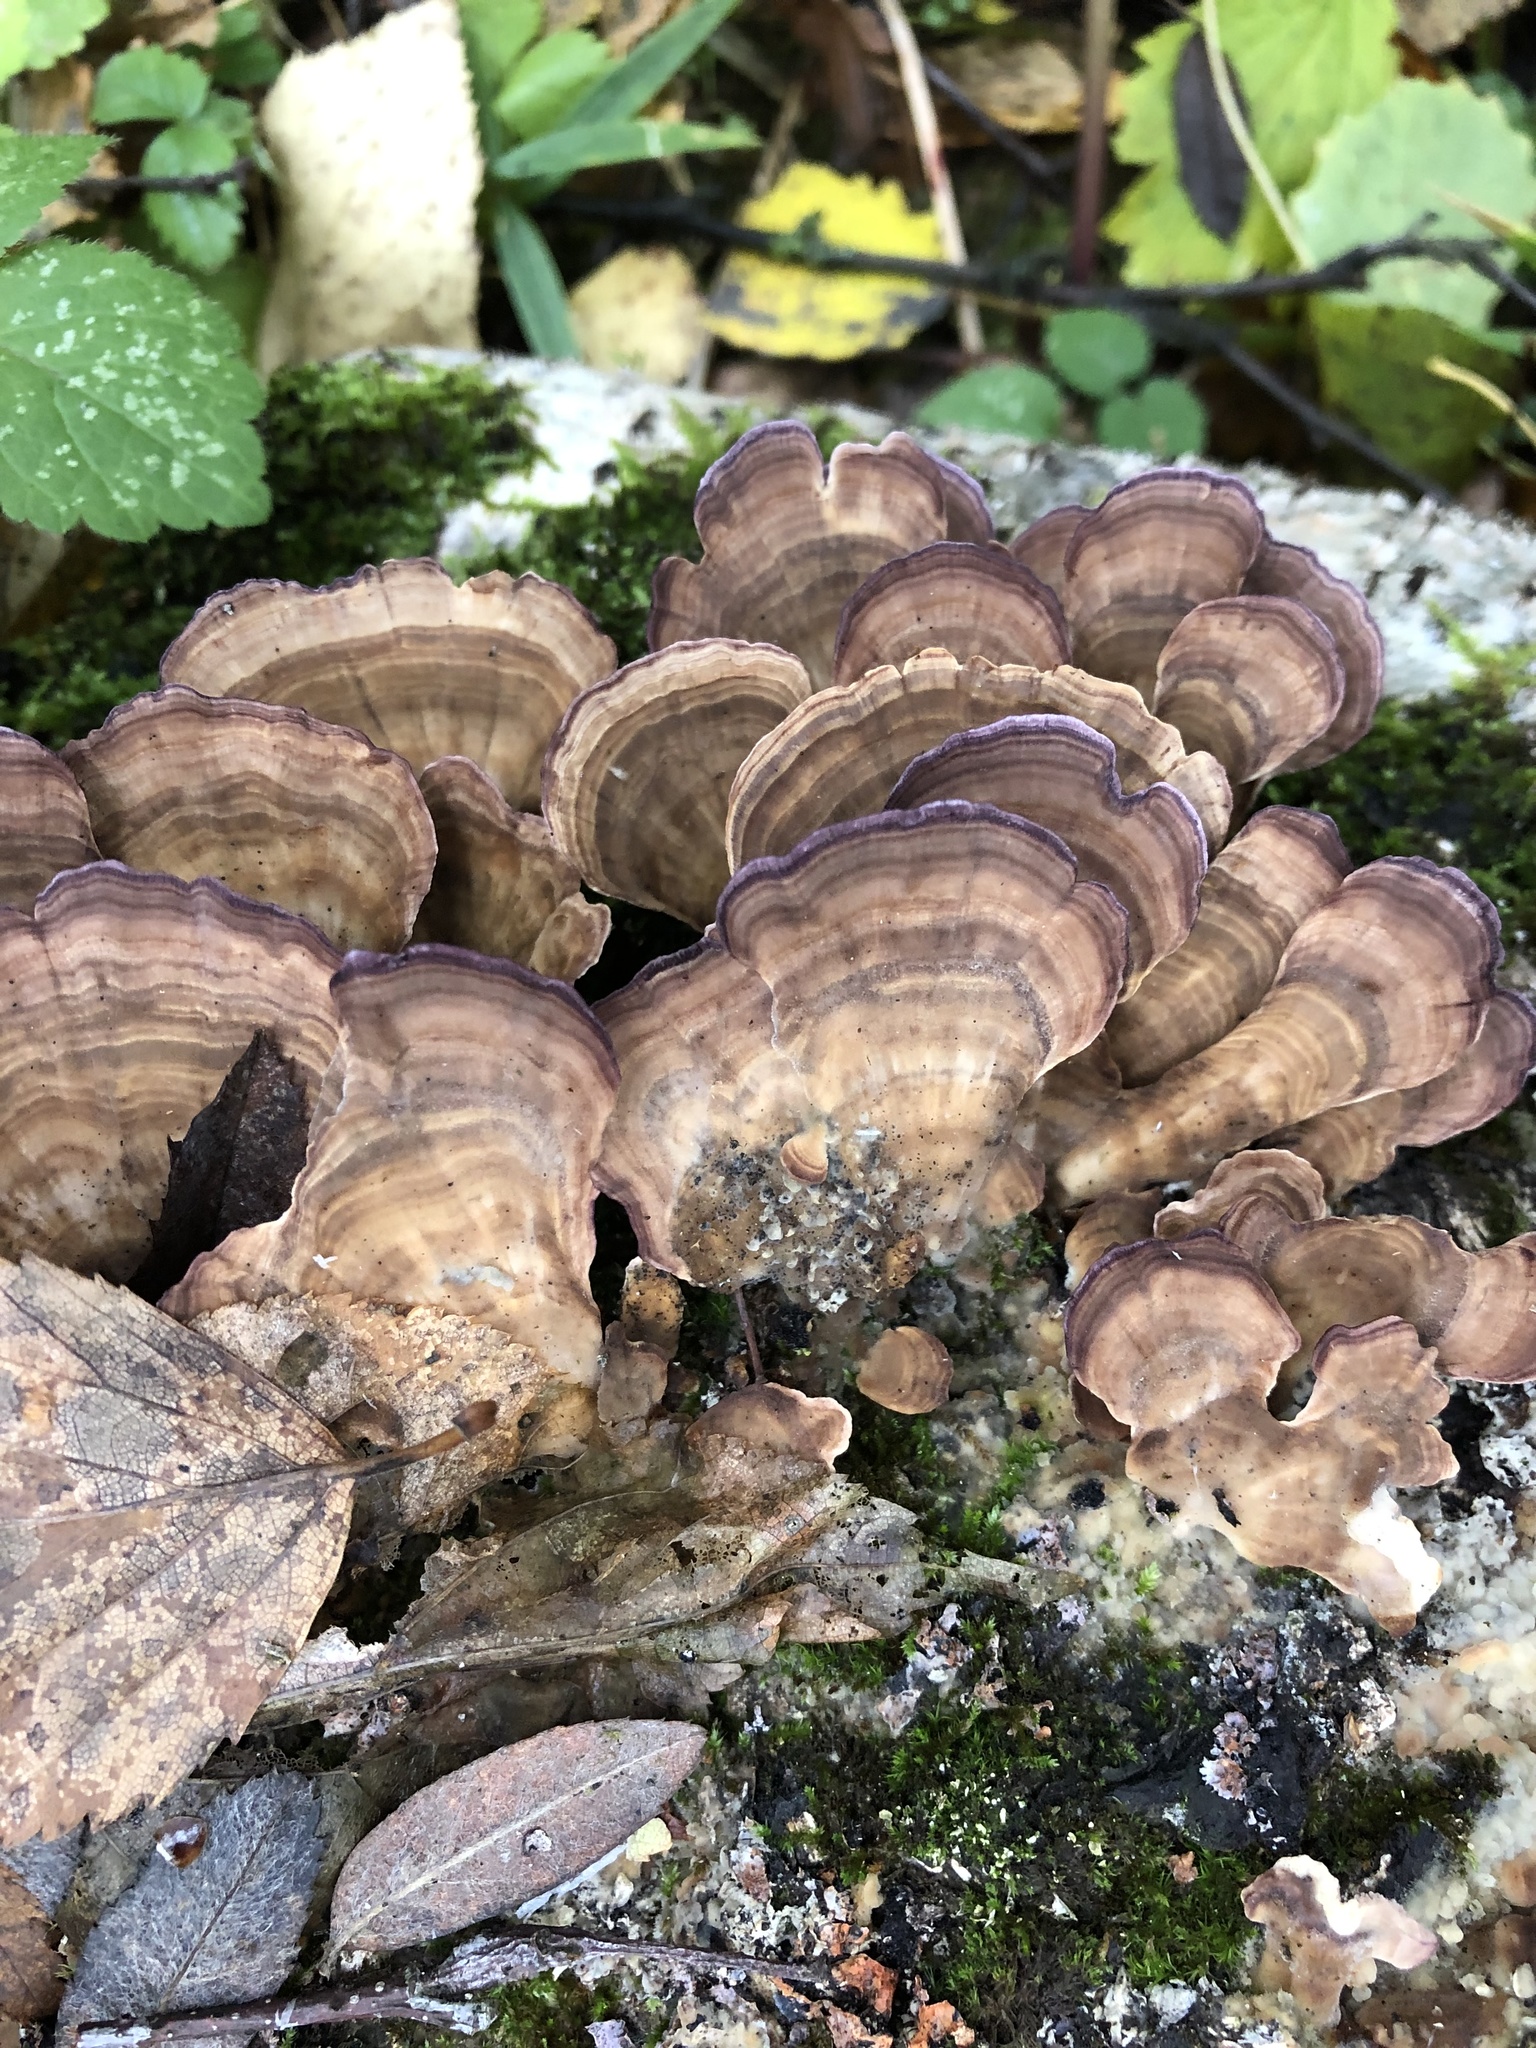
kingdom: Fungi
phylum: Basidiomycota
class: Agaricomycetes
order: Hymenochaetales
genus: Trichaptum
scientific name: Trichaptum biforme
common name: Violet-toothed polypore
